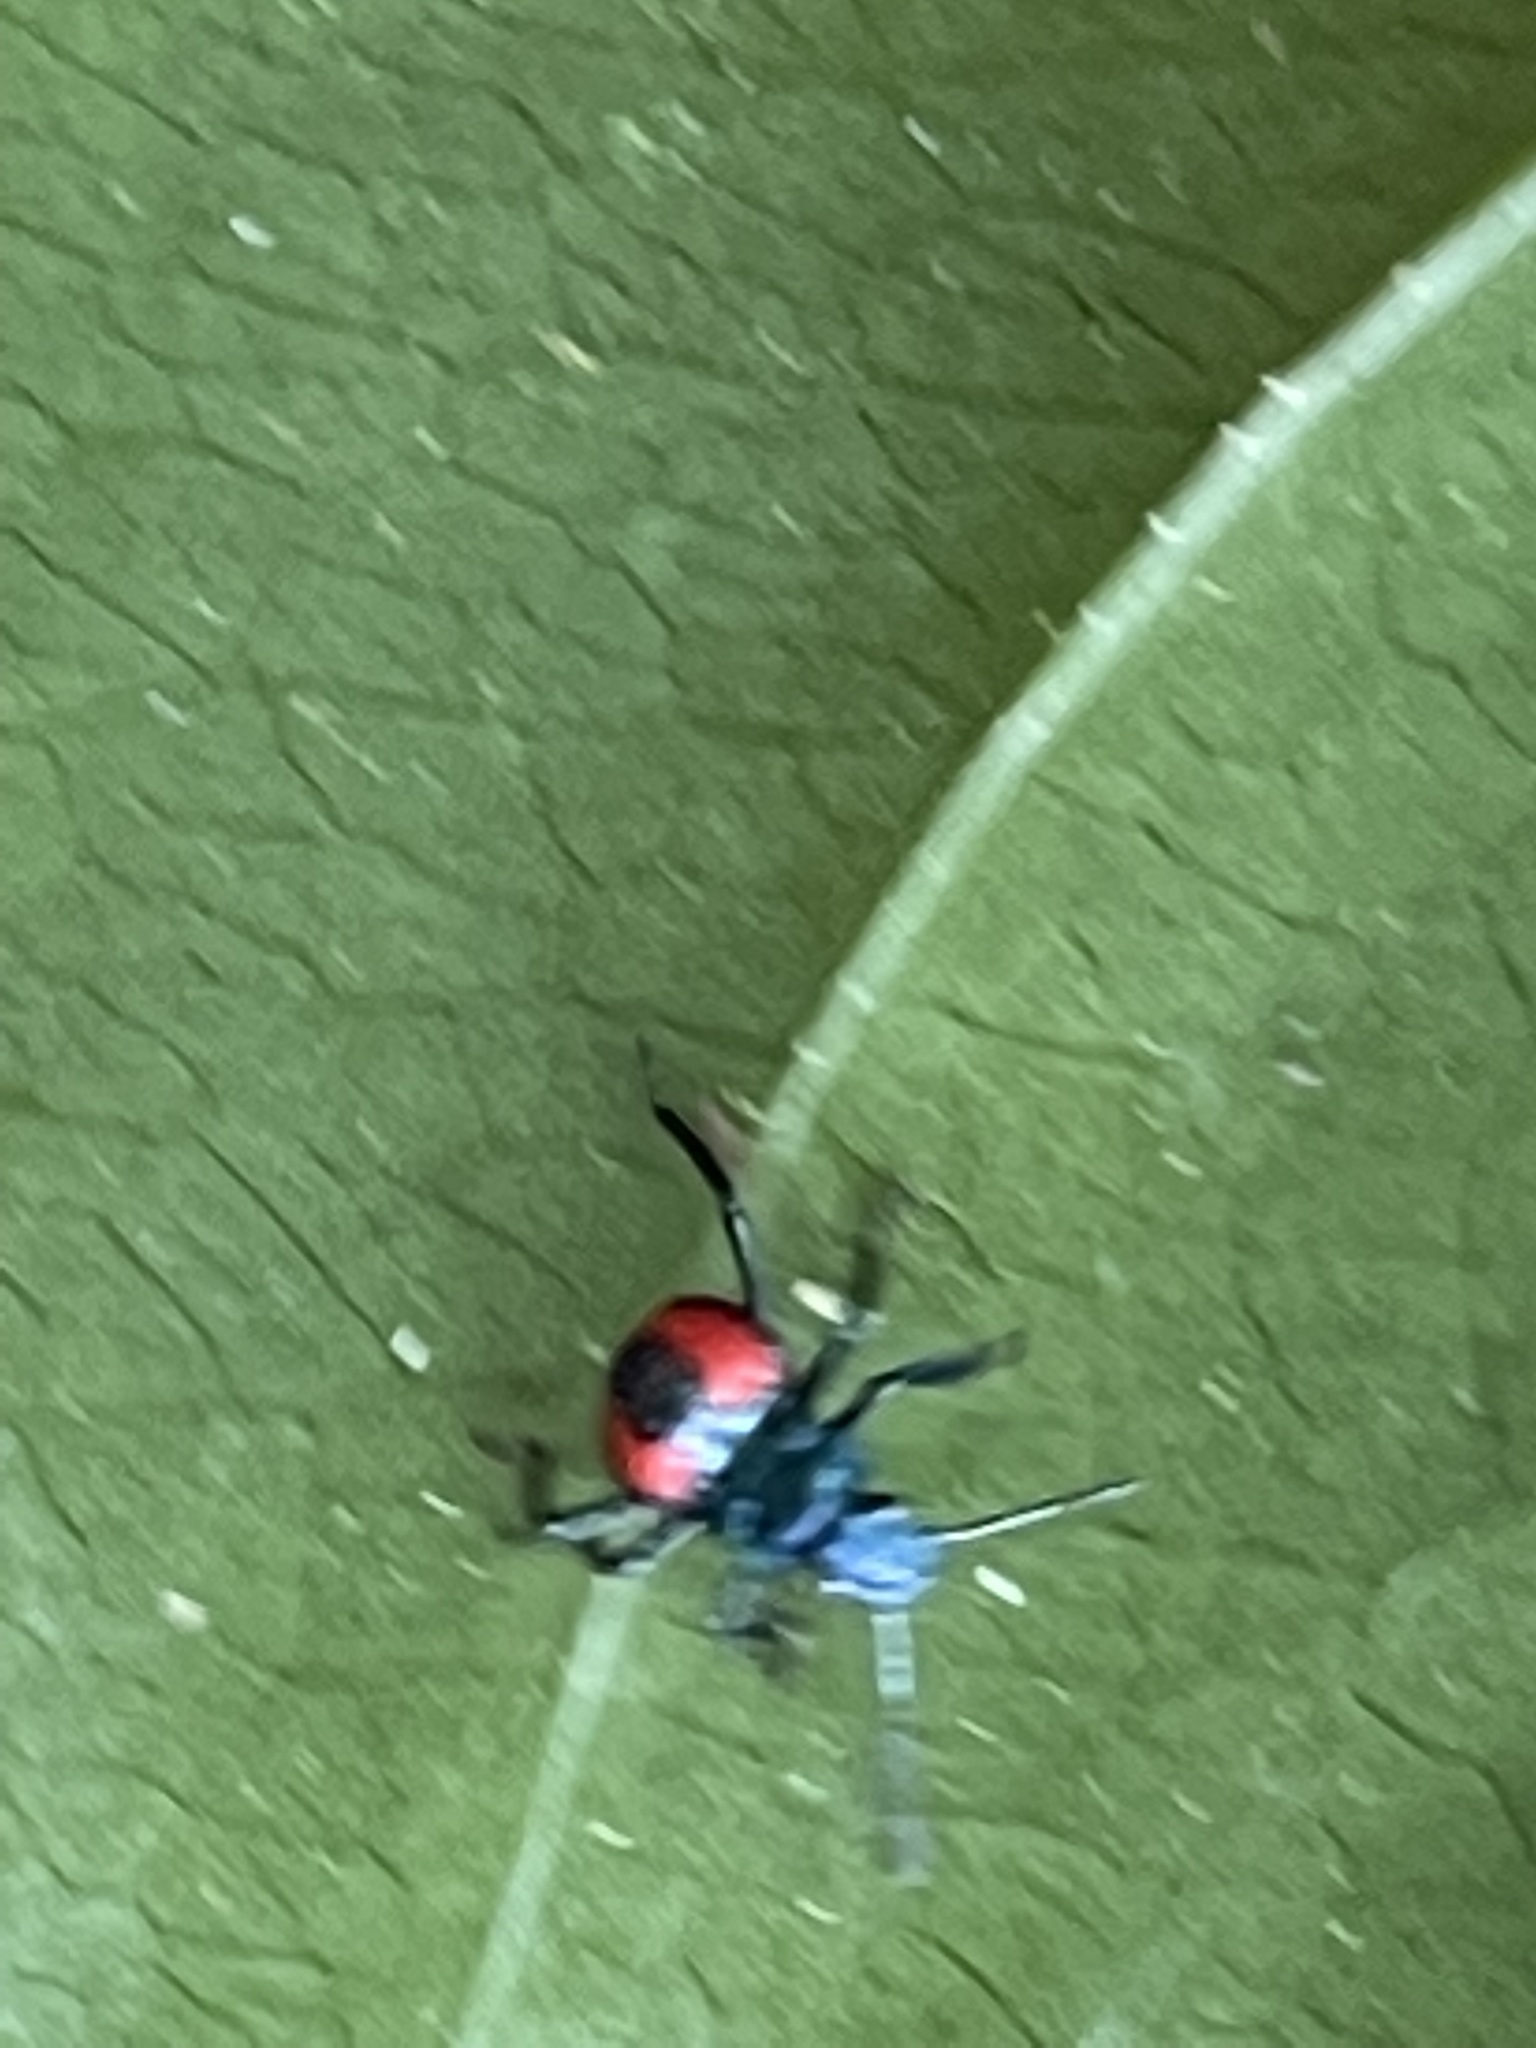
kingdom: Animalia
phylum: Arthropoda
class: Insecta
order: Hemiptera
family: Pentatomidae
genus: Euthyrhynchus
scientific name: Euthyrhynchus floridanus
